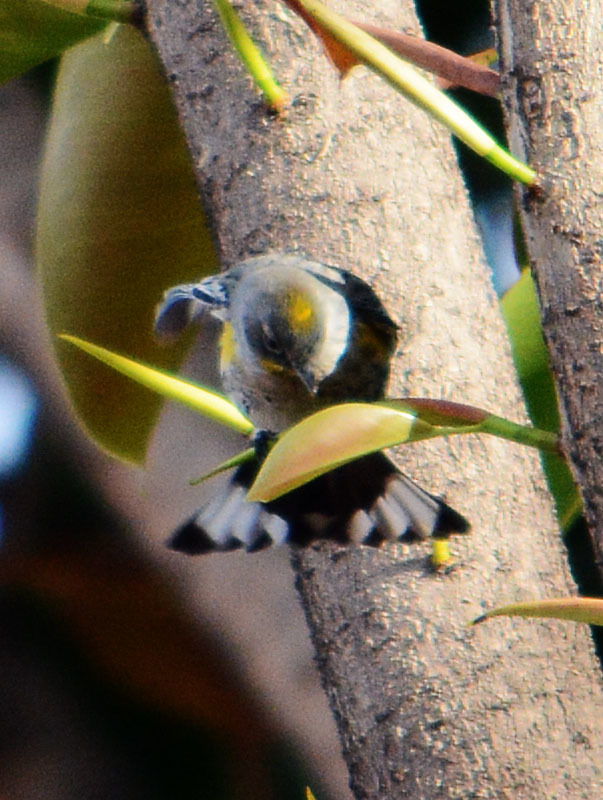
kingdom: Animalia
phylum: Chordata
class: Aves
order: Passeriformes
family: Parulidae
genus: Setophaga
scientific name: Setophaga auduboni
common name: Audubon's warbler
